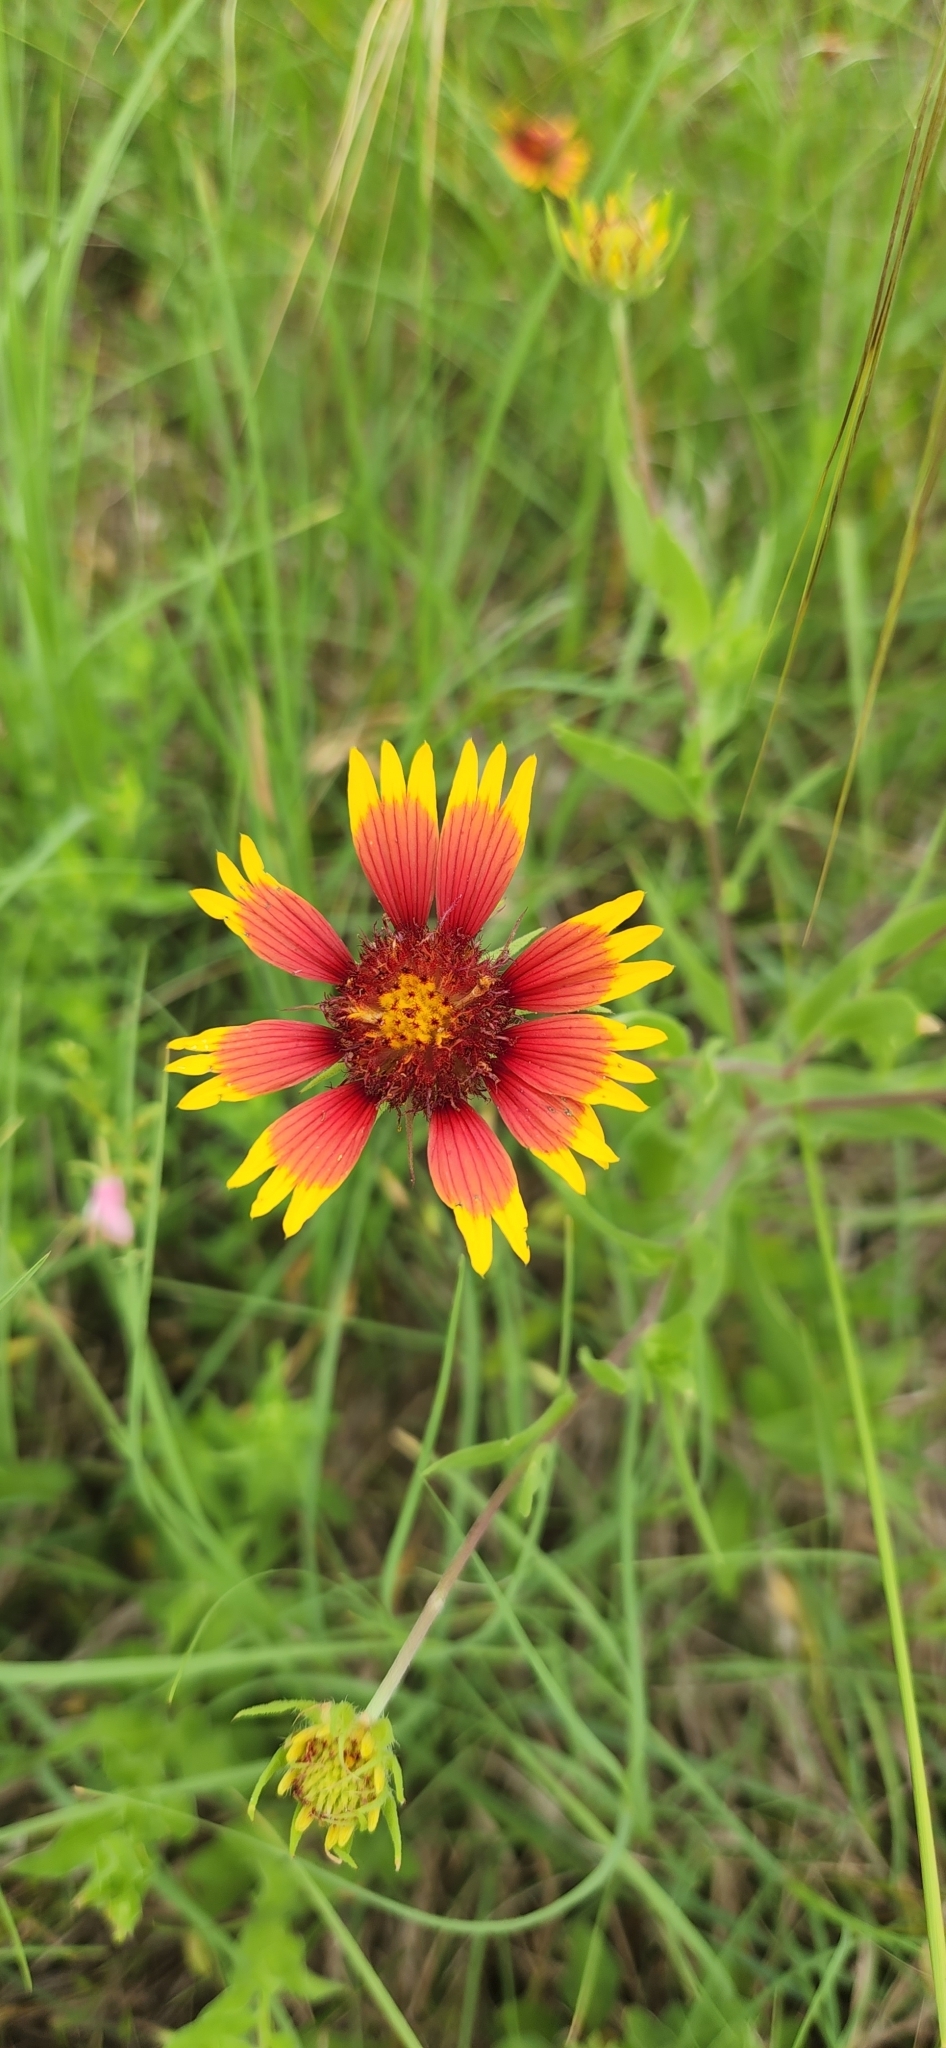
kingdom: Plantae
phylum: Tracheophyta
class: Magnoliopsida
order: Asterales
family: Asteraceae
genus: Gaillardia
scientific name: Gaillardia pulchella
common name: Firewheel
